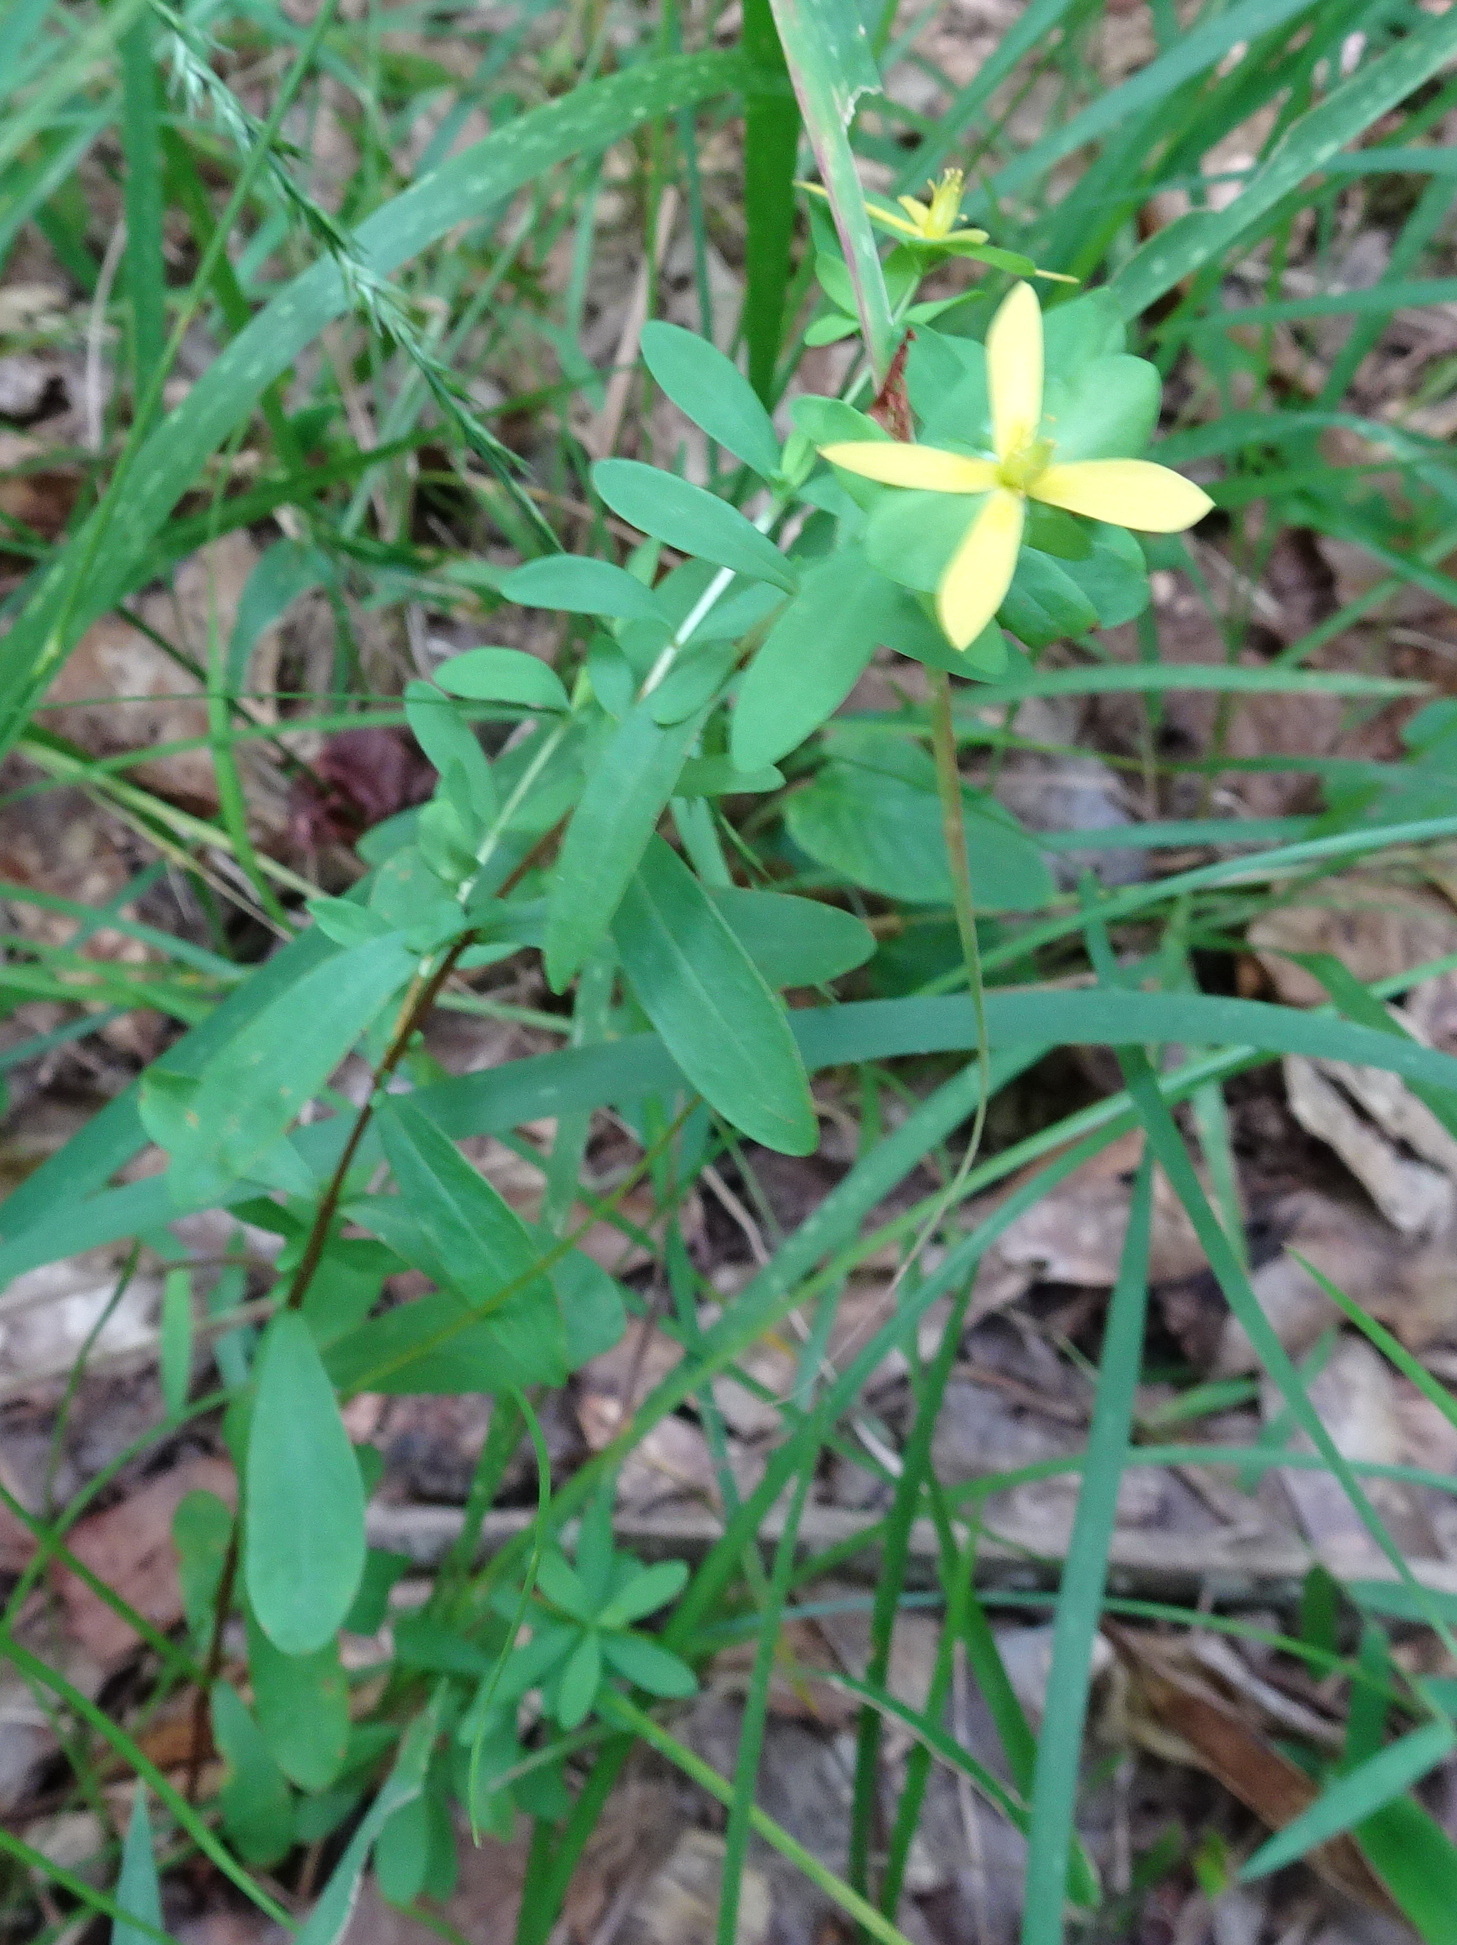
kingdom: Plantae
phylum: Tracheophyta
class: Magnoliopsida
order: Malpighiales
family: Hypericaceae
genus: Hypericum
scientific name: Hypericum hypericoides
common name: St. andrew's cross
